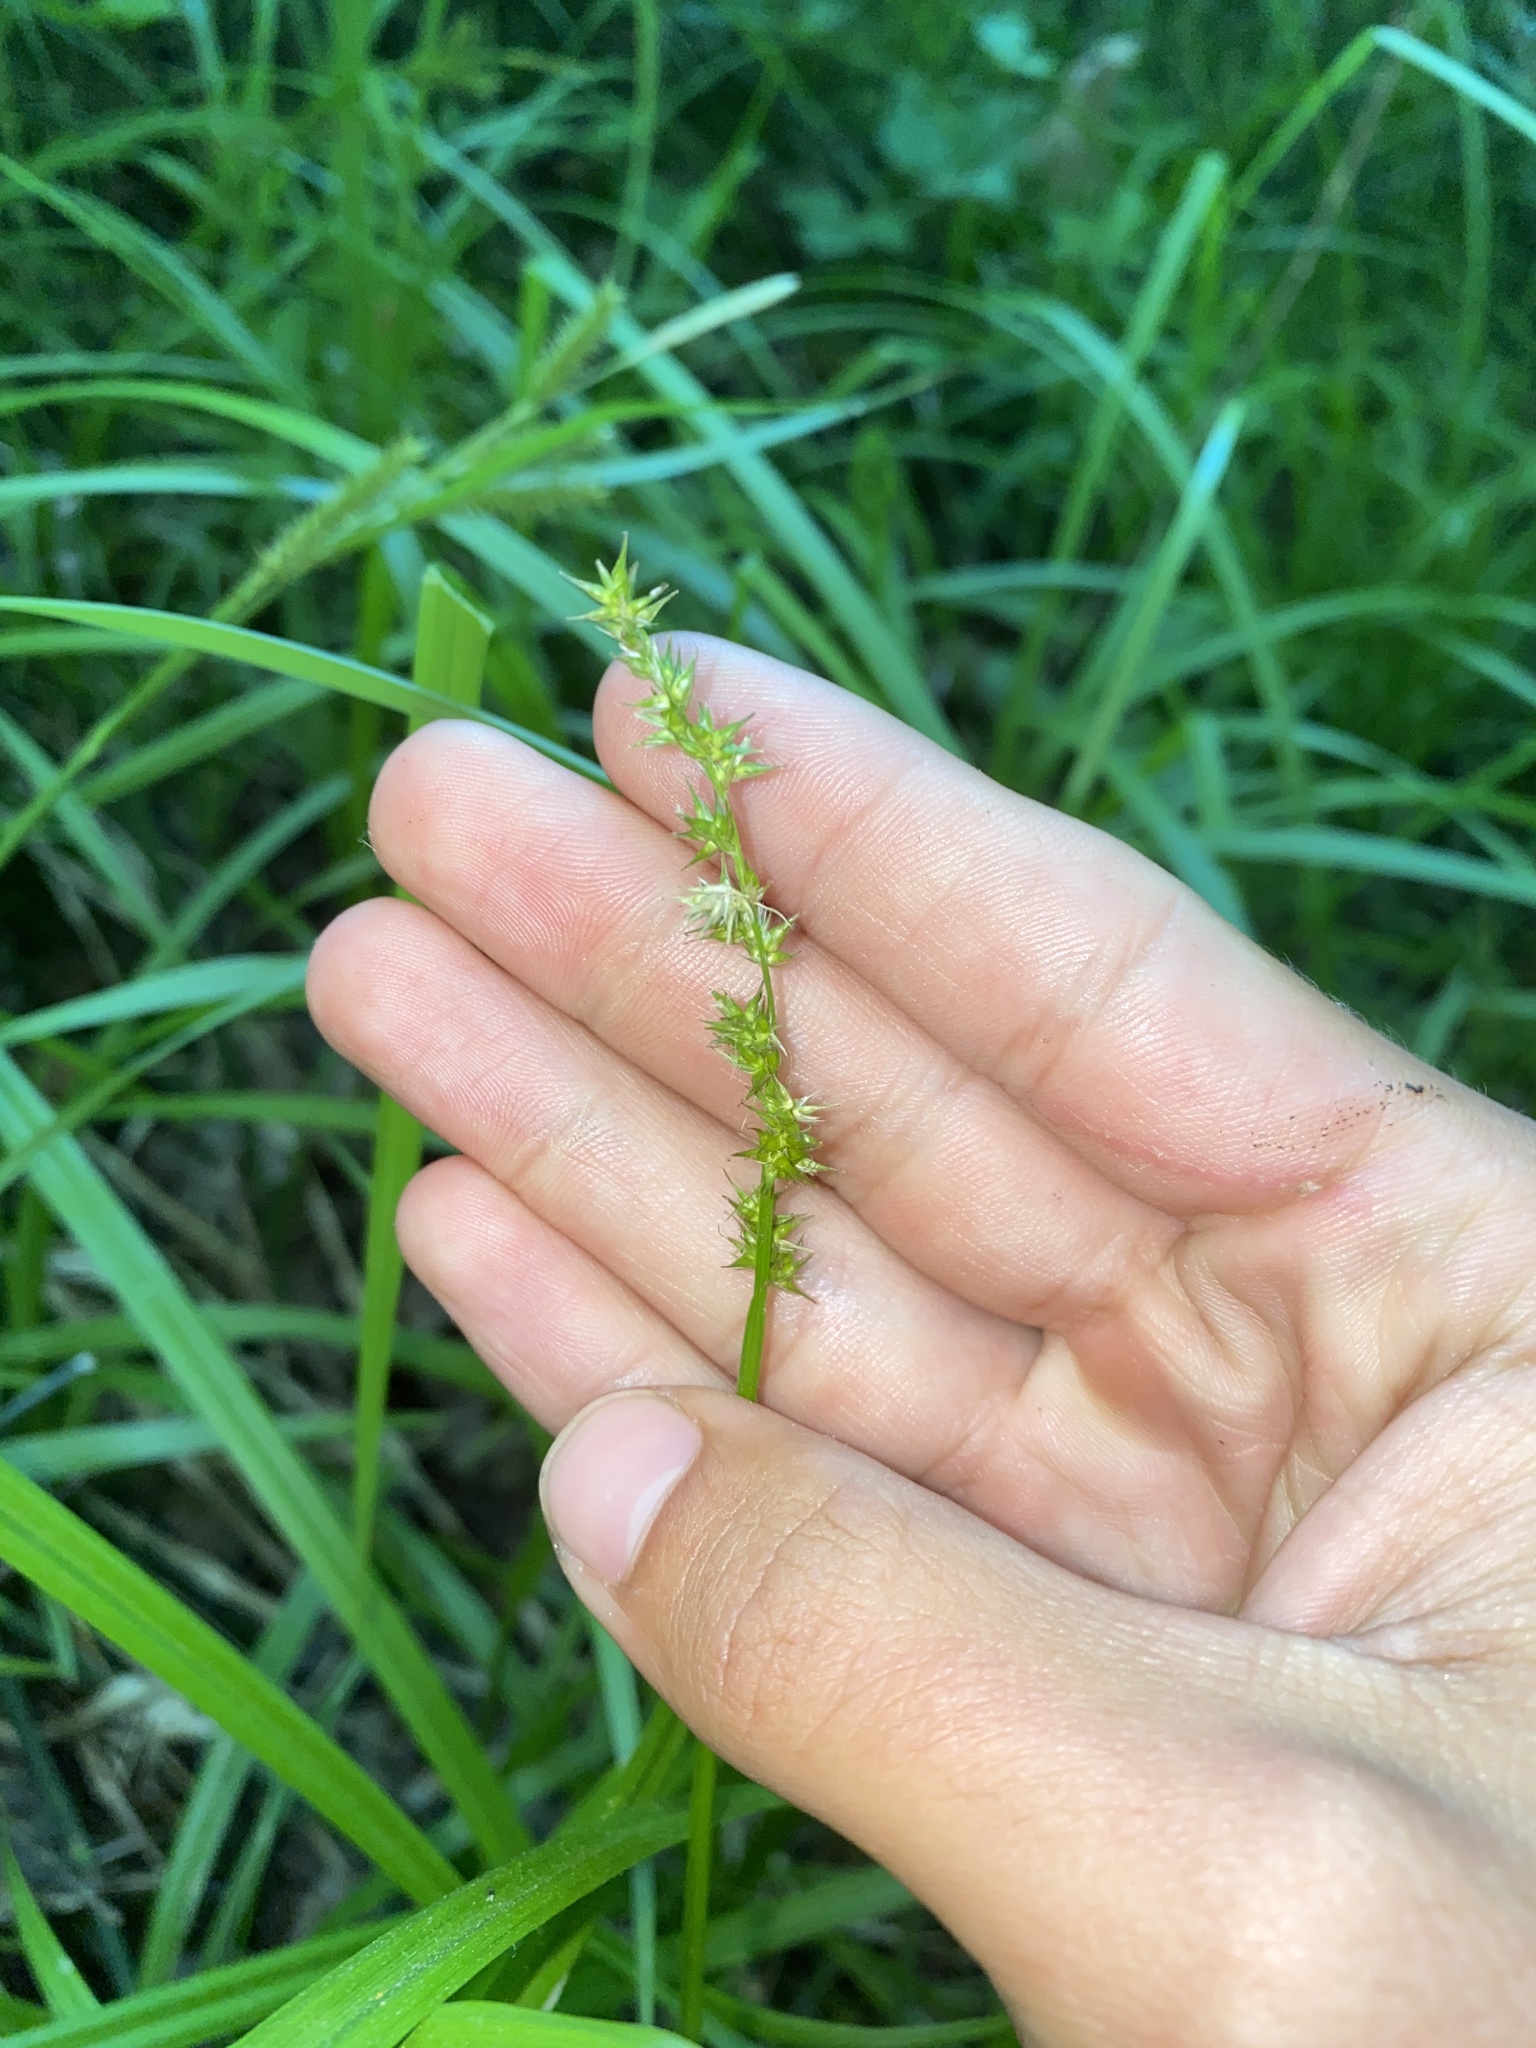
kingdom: Plantae
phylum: Tracheophyta
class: Liliopsida
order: Poales
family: Cyperaceae
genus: Carex
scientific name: Carex stipata
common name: Awl-fruited sedge
